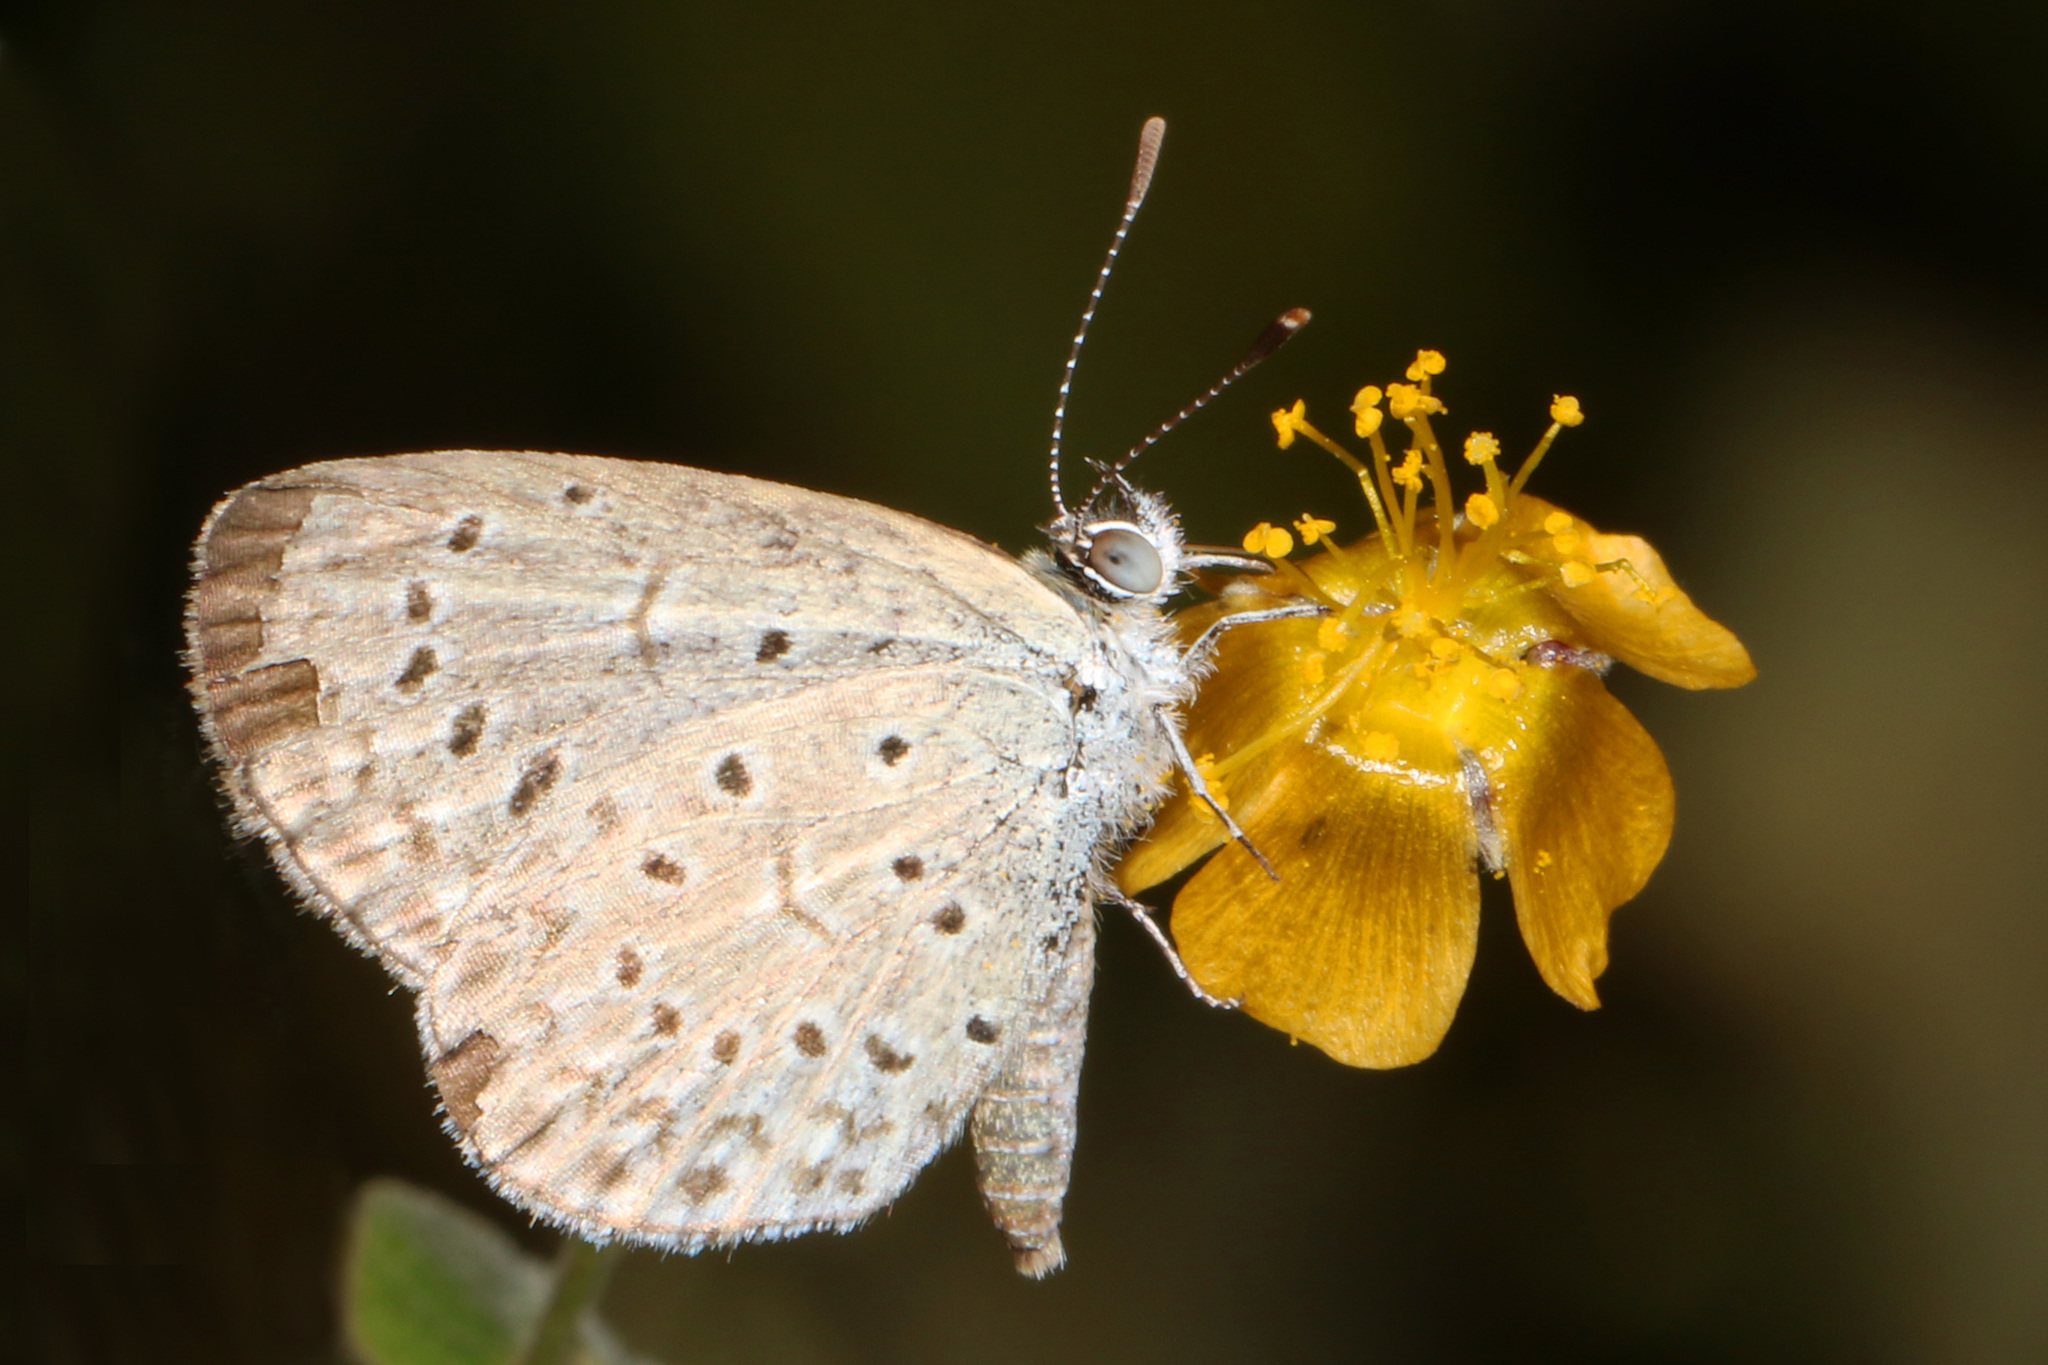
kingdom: Animalia
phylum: Arthropoda
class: Insecta
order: Lepidoptera
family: Lycaenidae
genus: Zizeeria
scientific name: Zizeeria knysna
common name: African grass blue
